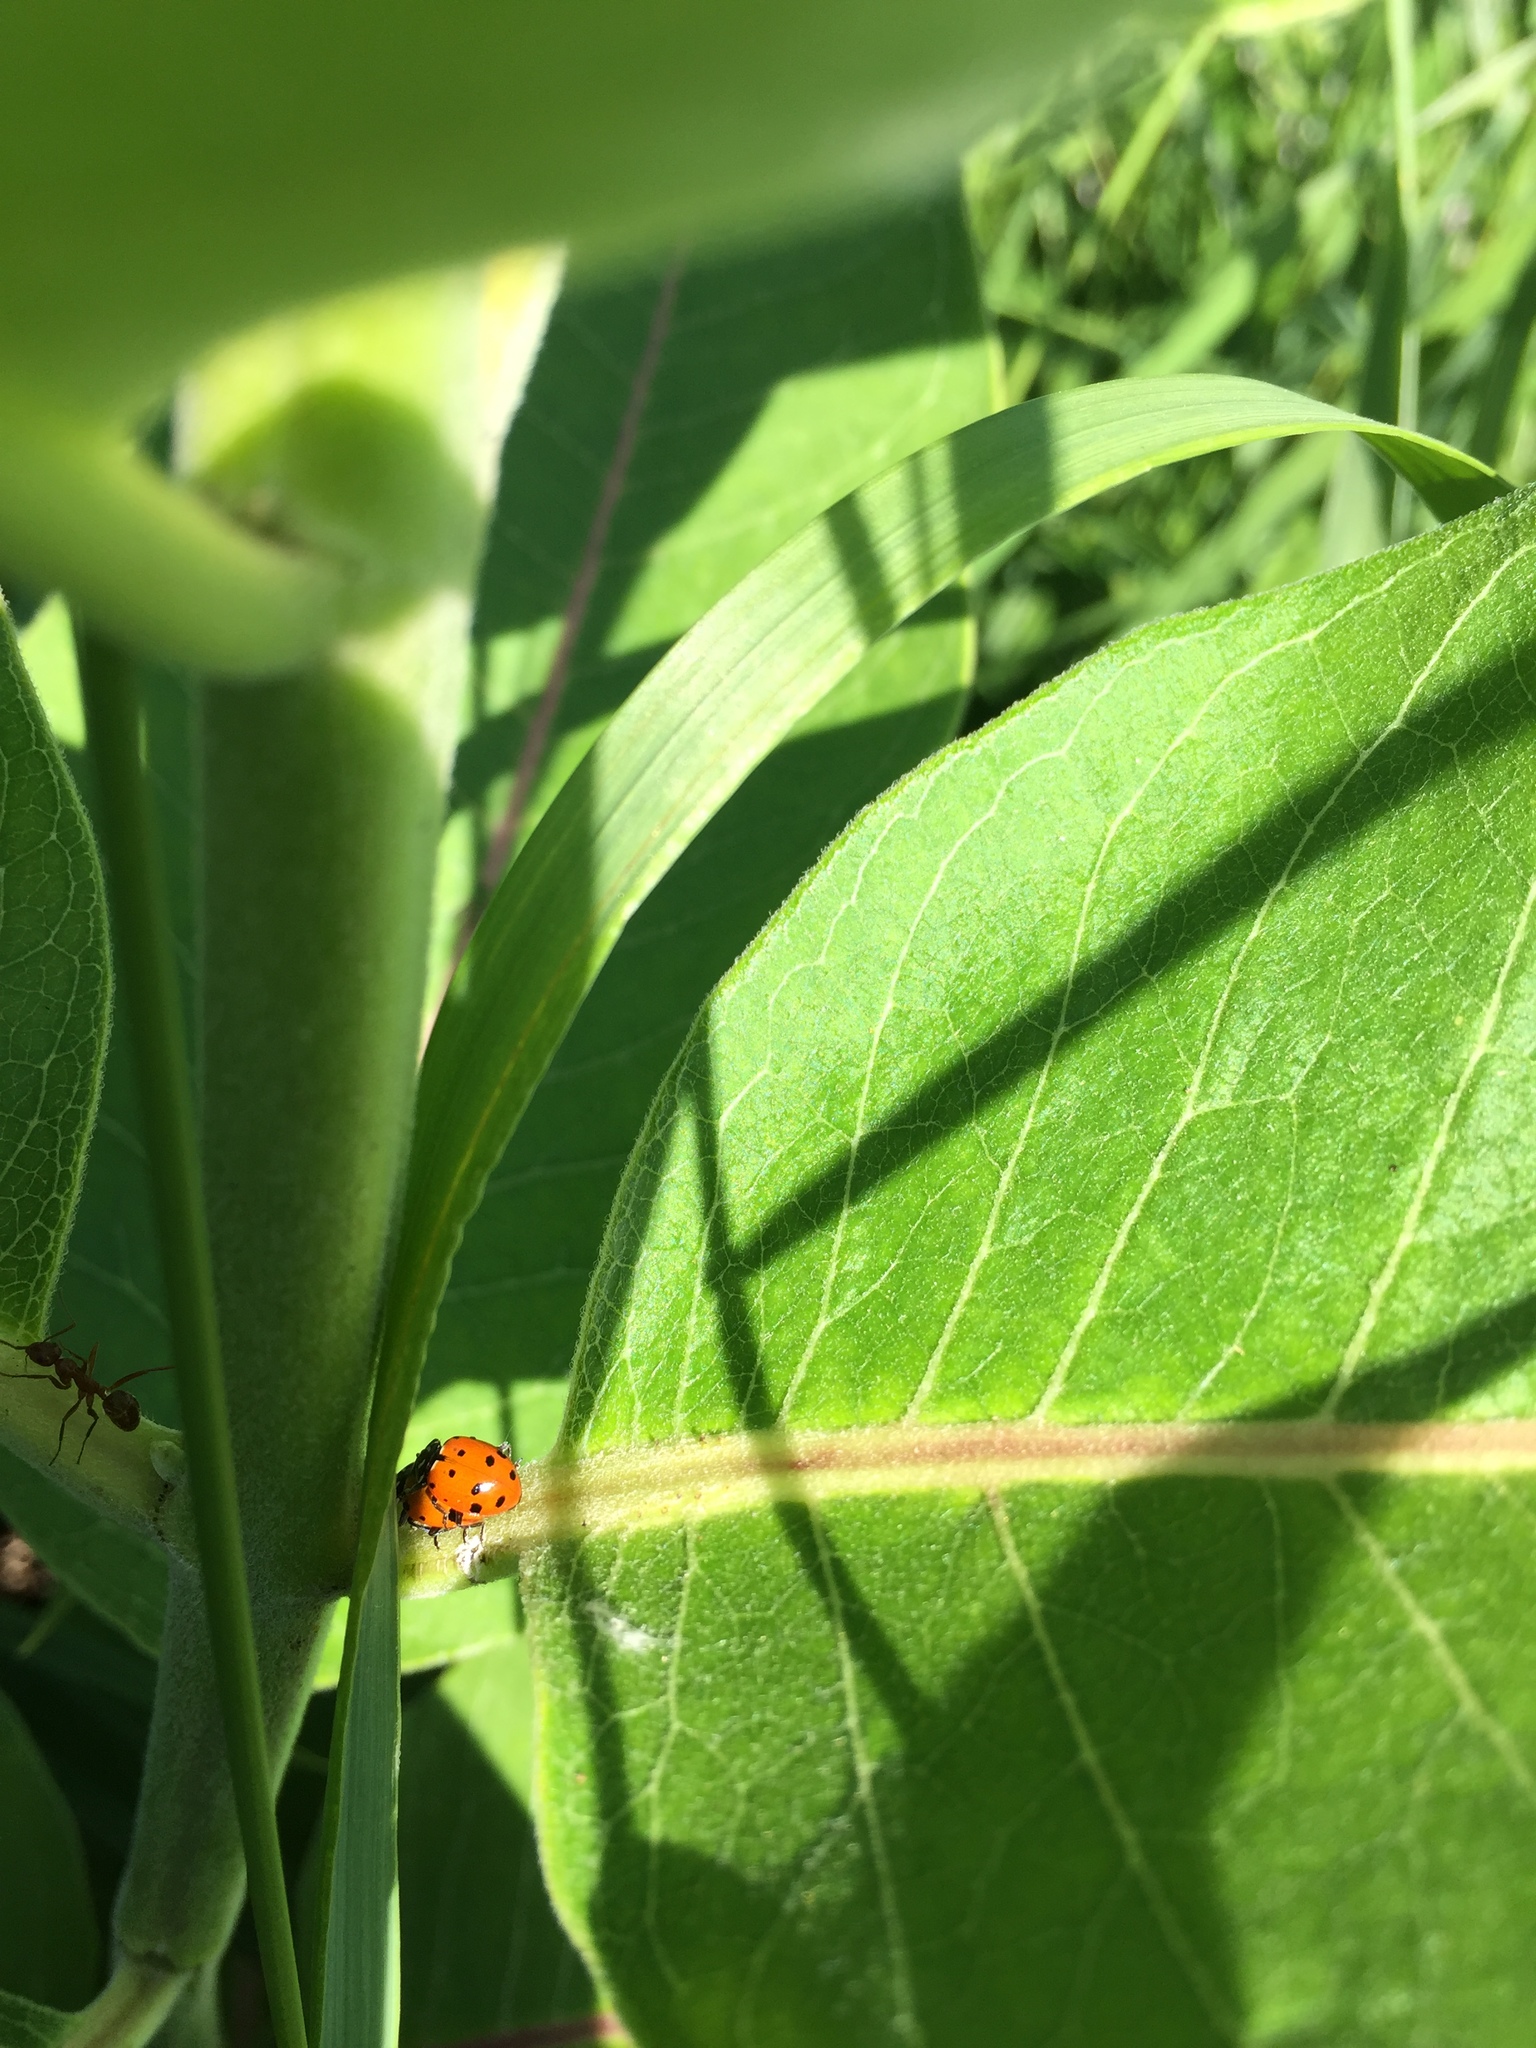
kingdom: Animalia
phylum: Arthropoda
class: Insecta
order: Coleoptera
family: Coccinellidae
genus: Hippodamia
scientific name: Hippodamia convergens
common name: Convergent lady beetle
